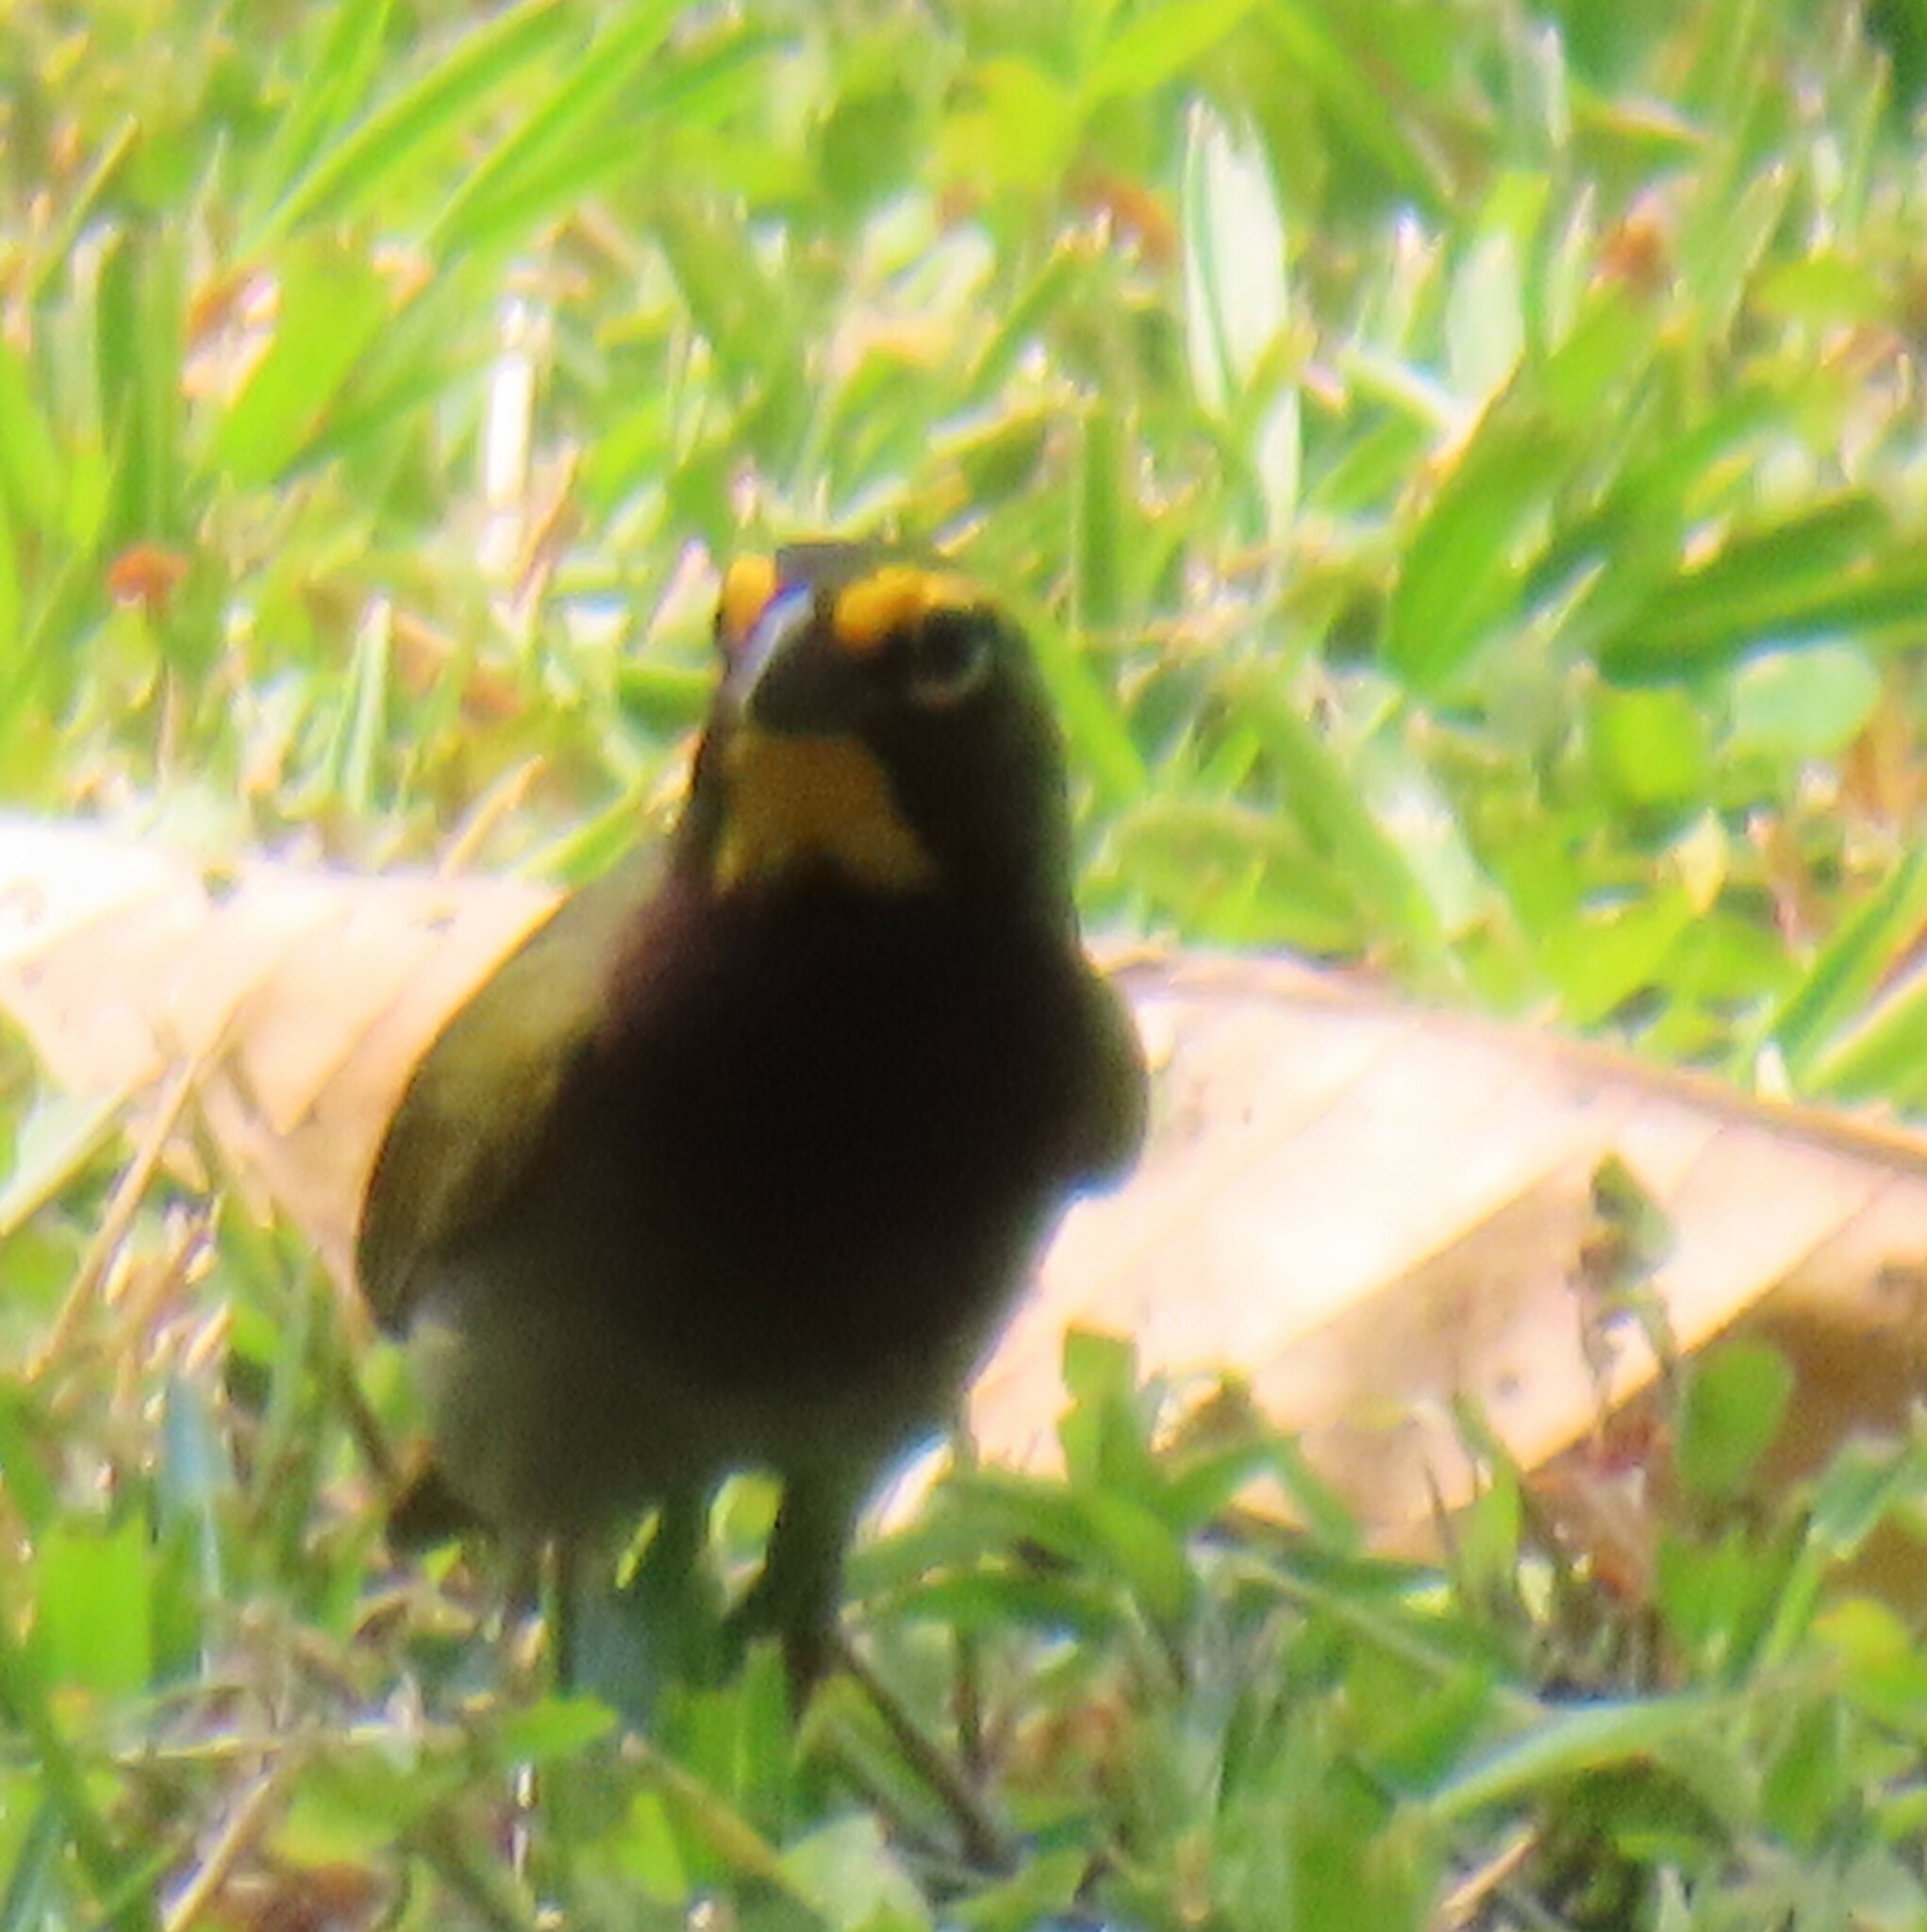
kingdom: Animalia
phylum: Chordata
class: Aves
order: Passeriformes
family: Thraupidae
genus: Tiaris
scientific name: Tiaris olivaceus
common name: Yellow-faced grassquit
